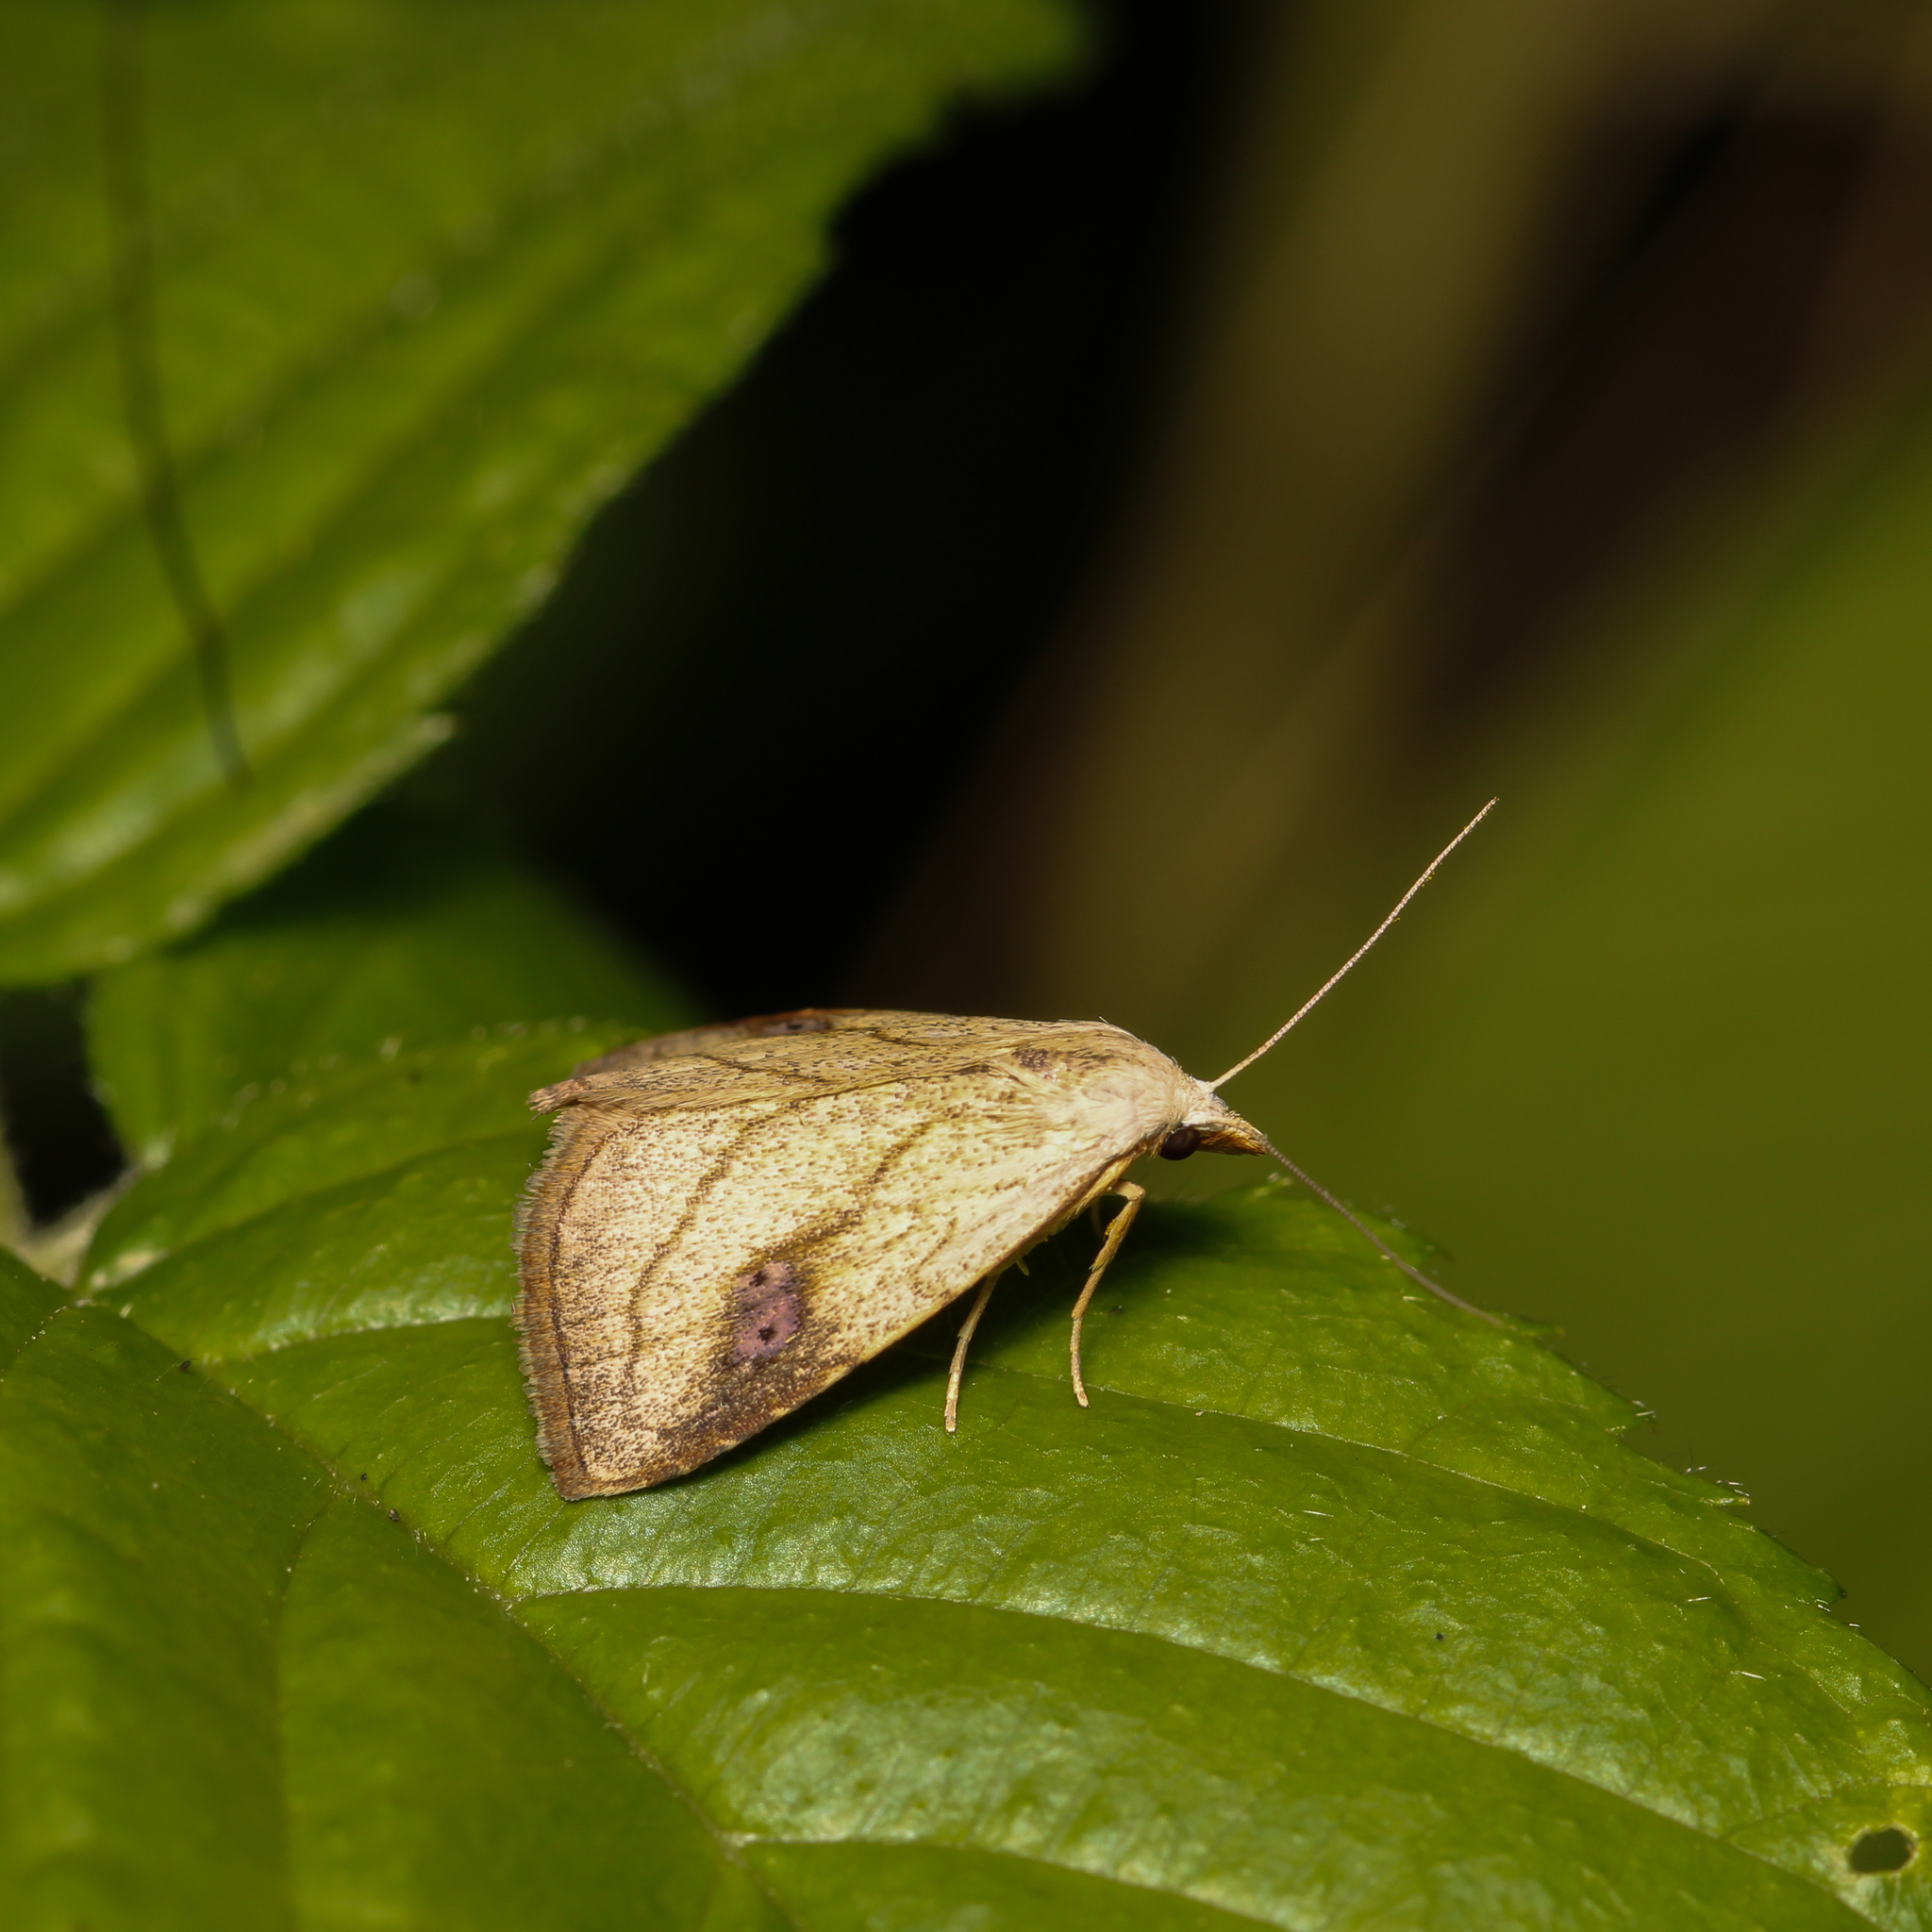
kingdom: Animalia
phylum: Arthropoda
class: Insecta
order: Lepidoptera
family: Erebidae
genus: Rivula
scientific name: Rivula propinqualis
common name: Spotted grass moth
